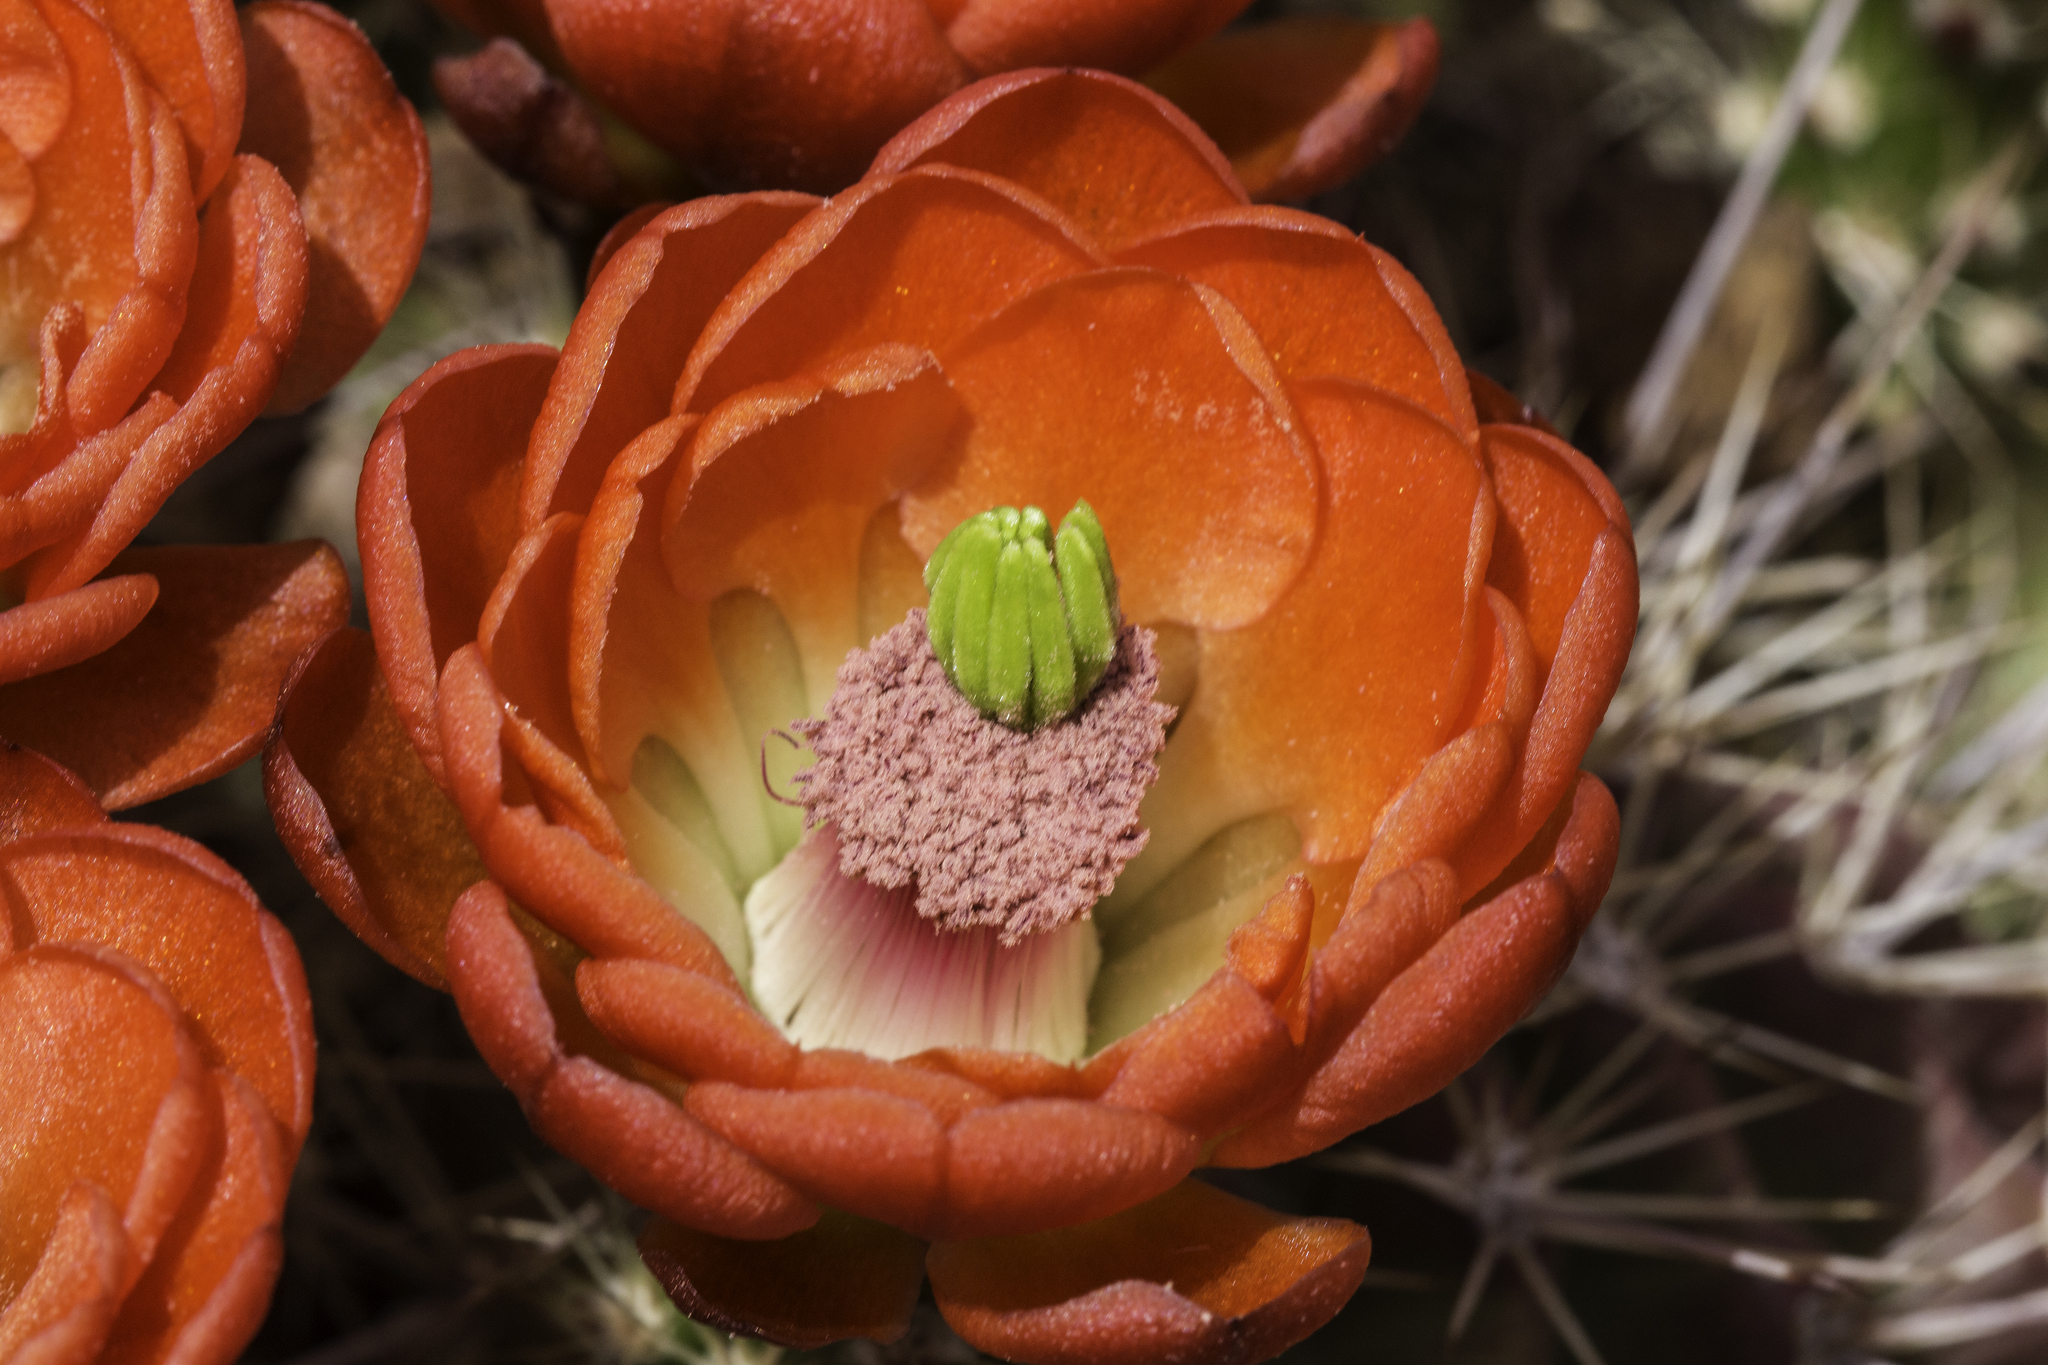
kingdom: Plantae
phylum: Tracheophyta
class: Magnoliopsida
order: Caryophyllales
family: Cactaceae
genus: Echinocereus
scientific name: Echinocereus coccineus
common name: Scarlet hedgehog cactus
